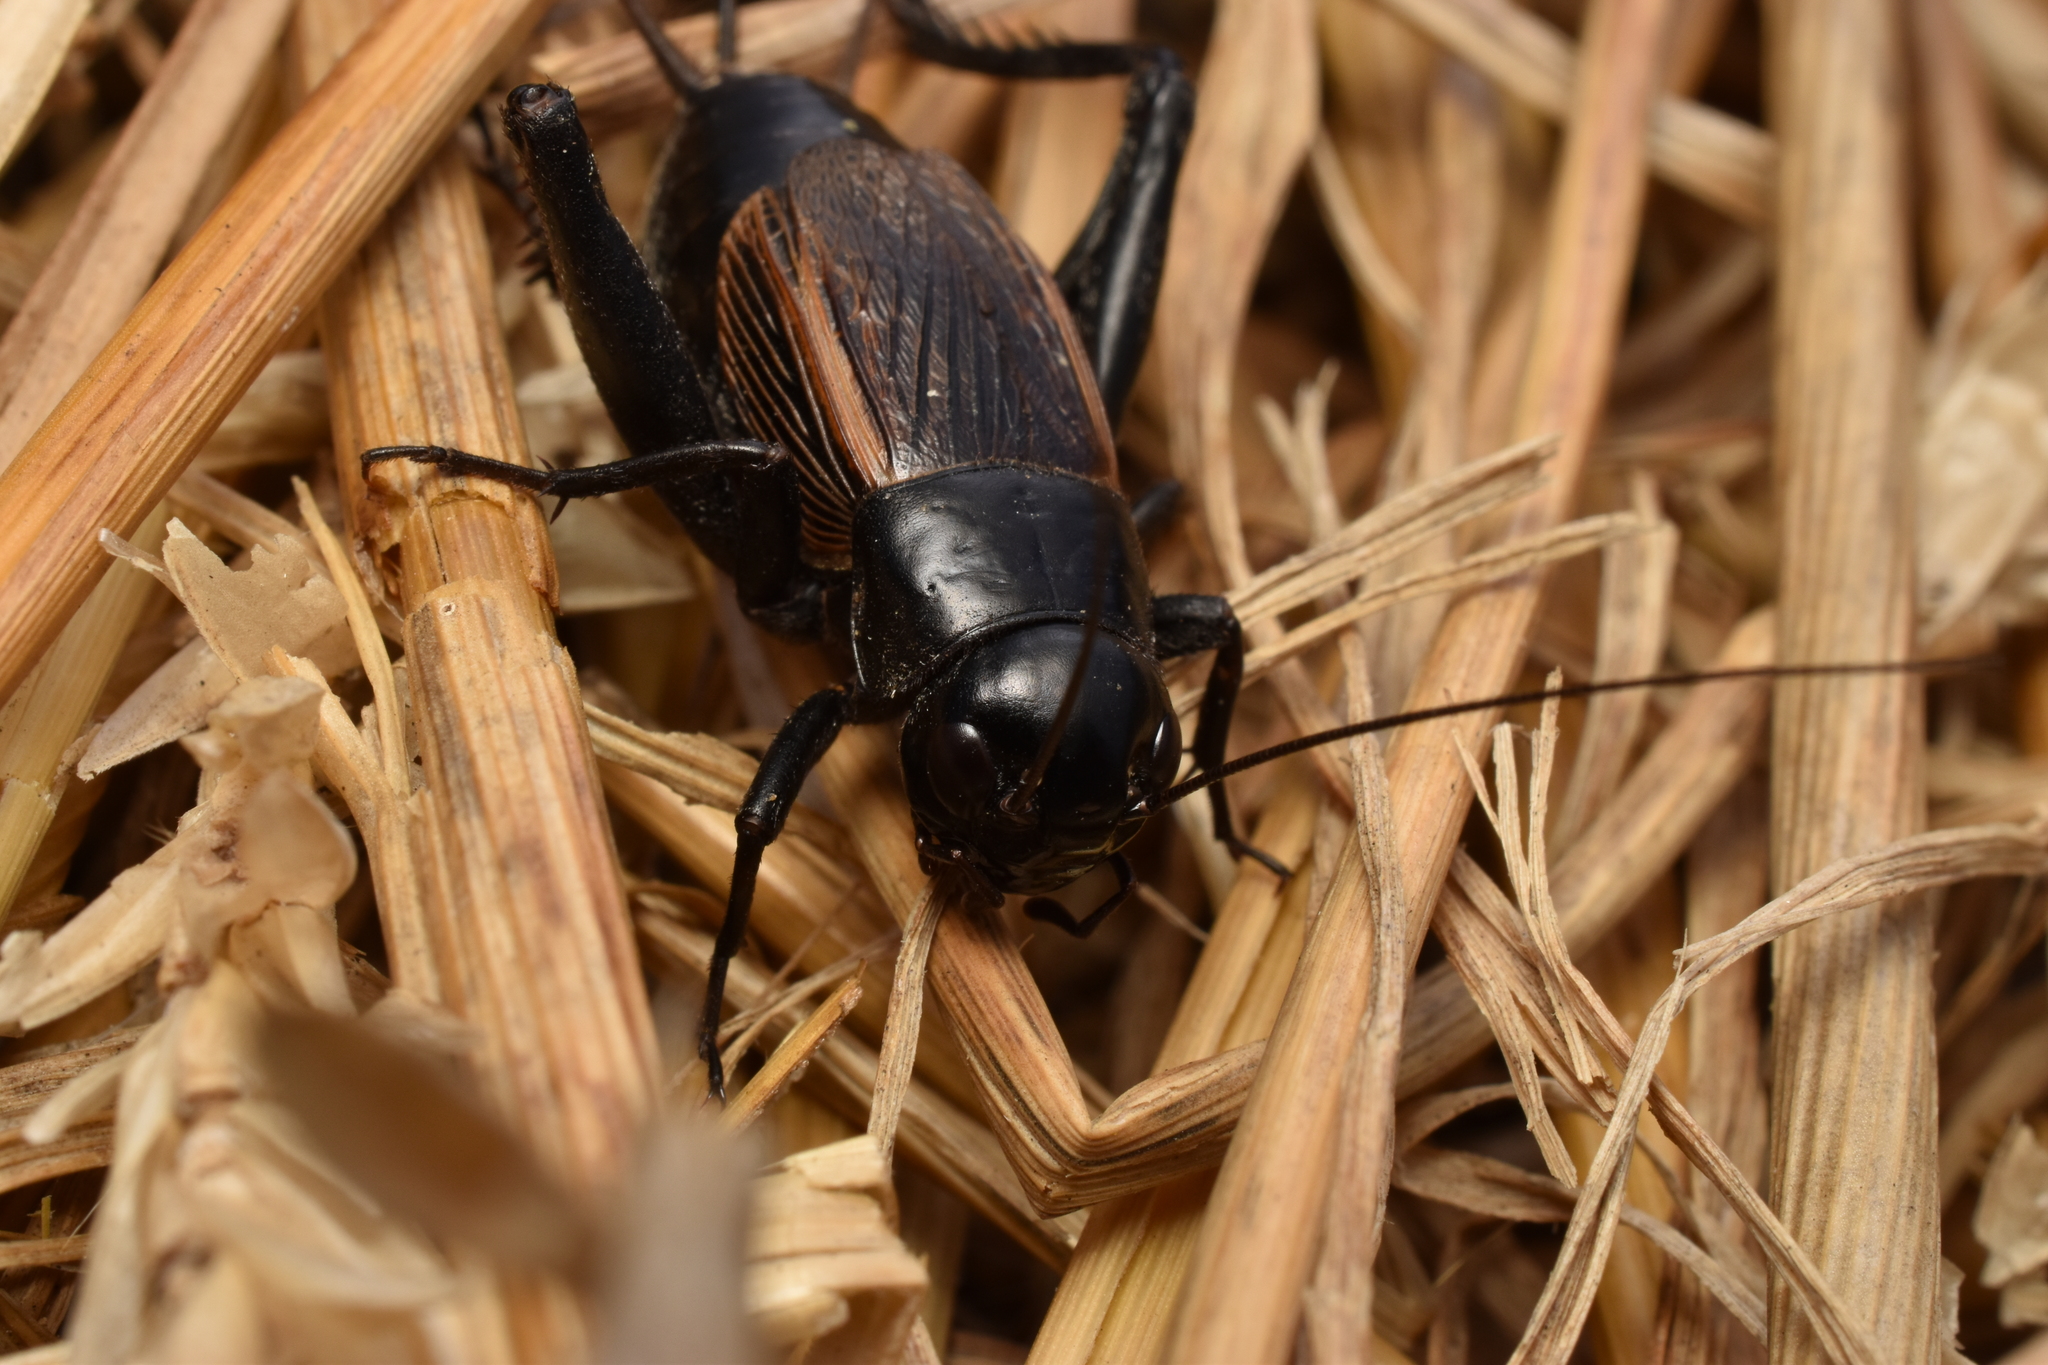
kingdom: Animalia
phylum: Arthropoda
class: Insecta
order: Orthoptera
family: Gryllidae
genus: Gryllus
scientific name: Gryllus pennsylvanicus
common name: Fall field cricket
